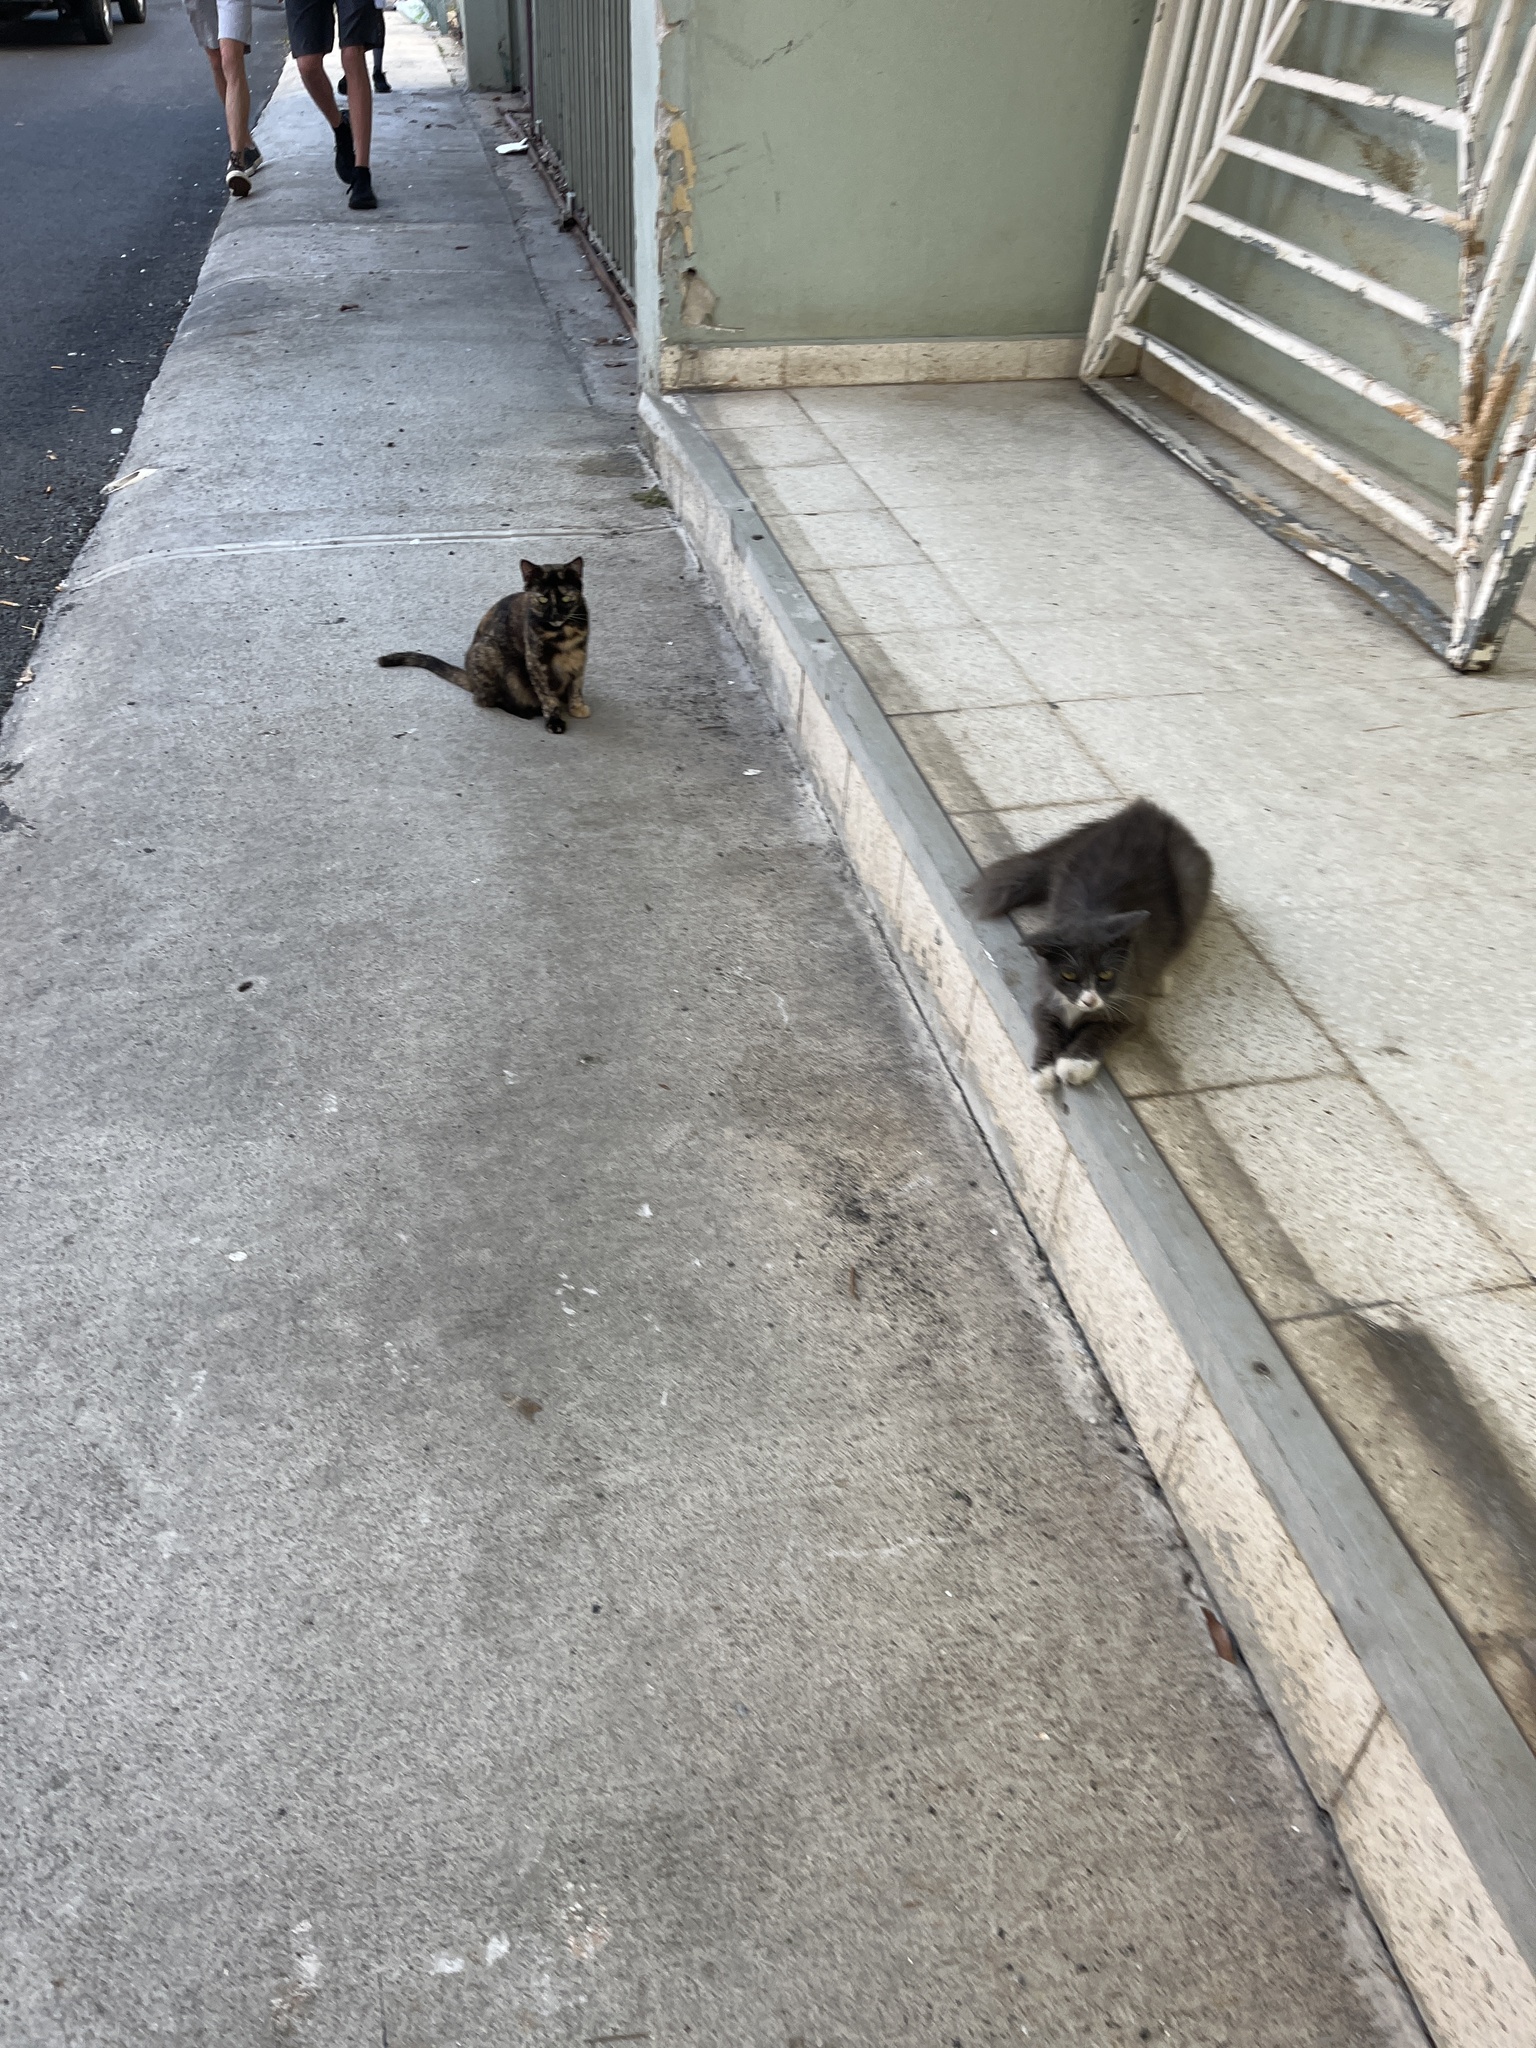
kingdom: Animalia
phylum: Chordata
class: Mammalia
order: Carnivora
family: Felidae
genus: Felis
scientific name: Felis catus
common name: Domestic cat
